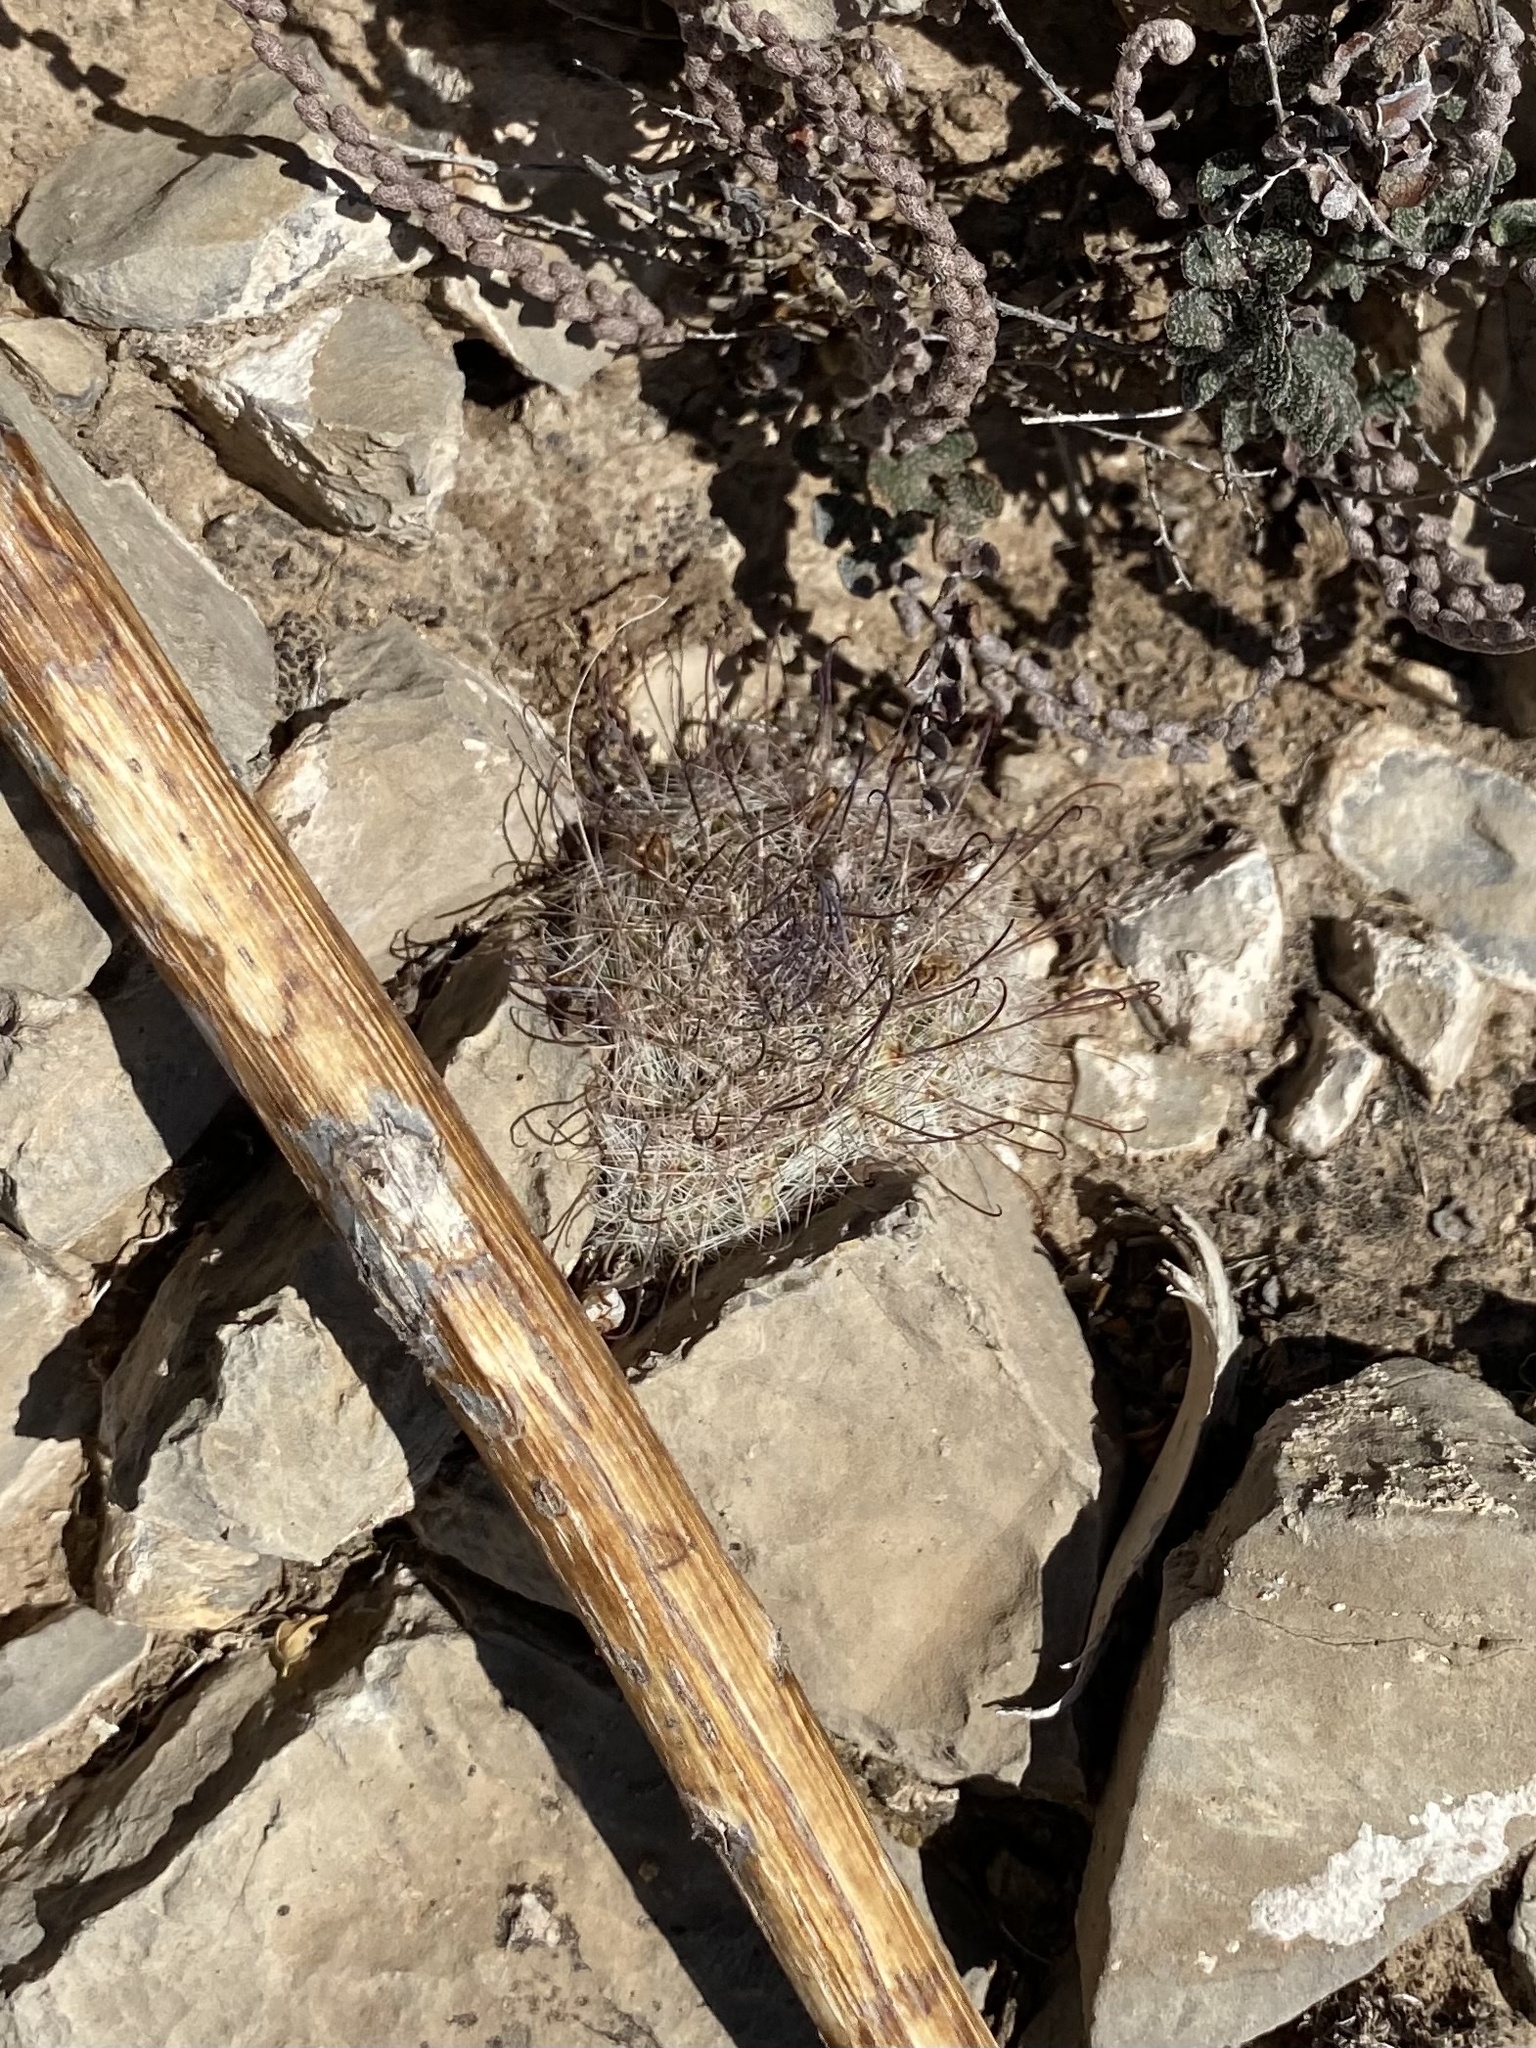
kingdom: Plantae
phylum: Tracheophyta
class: Magnoliopsida
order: Caryophyllales
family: Cactaceae
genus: Cochemiea
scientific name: Cochemiea grahamii
